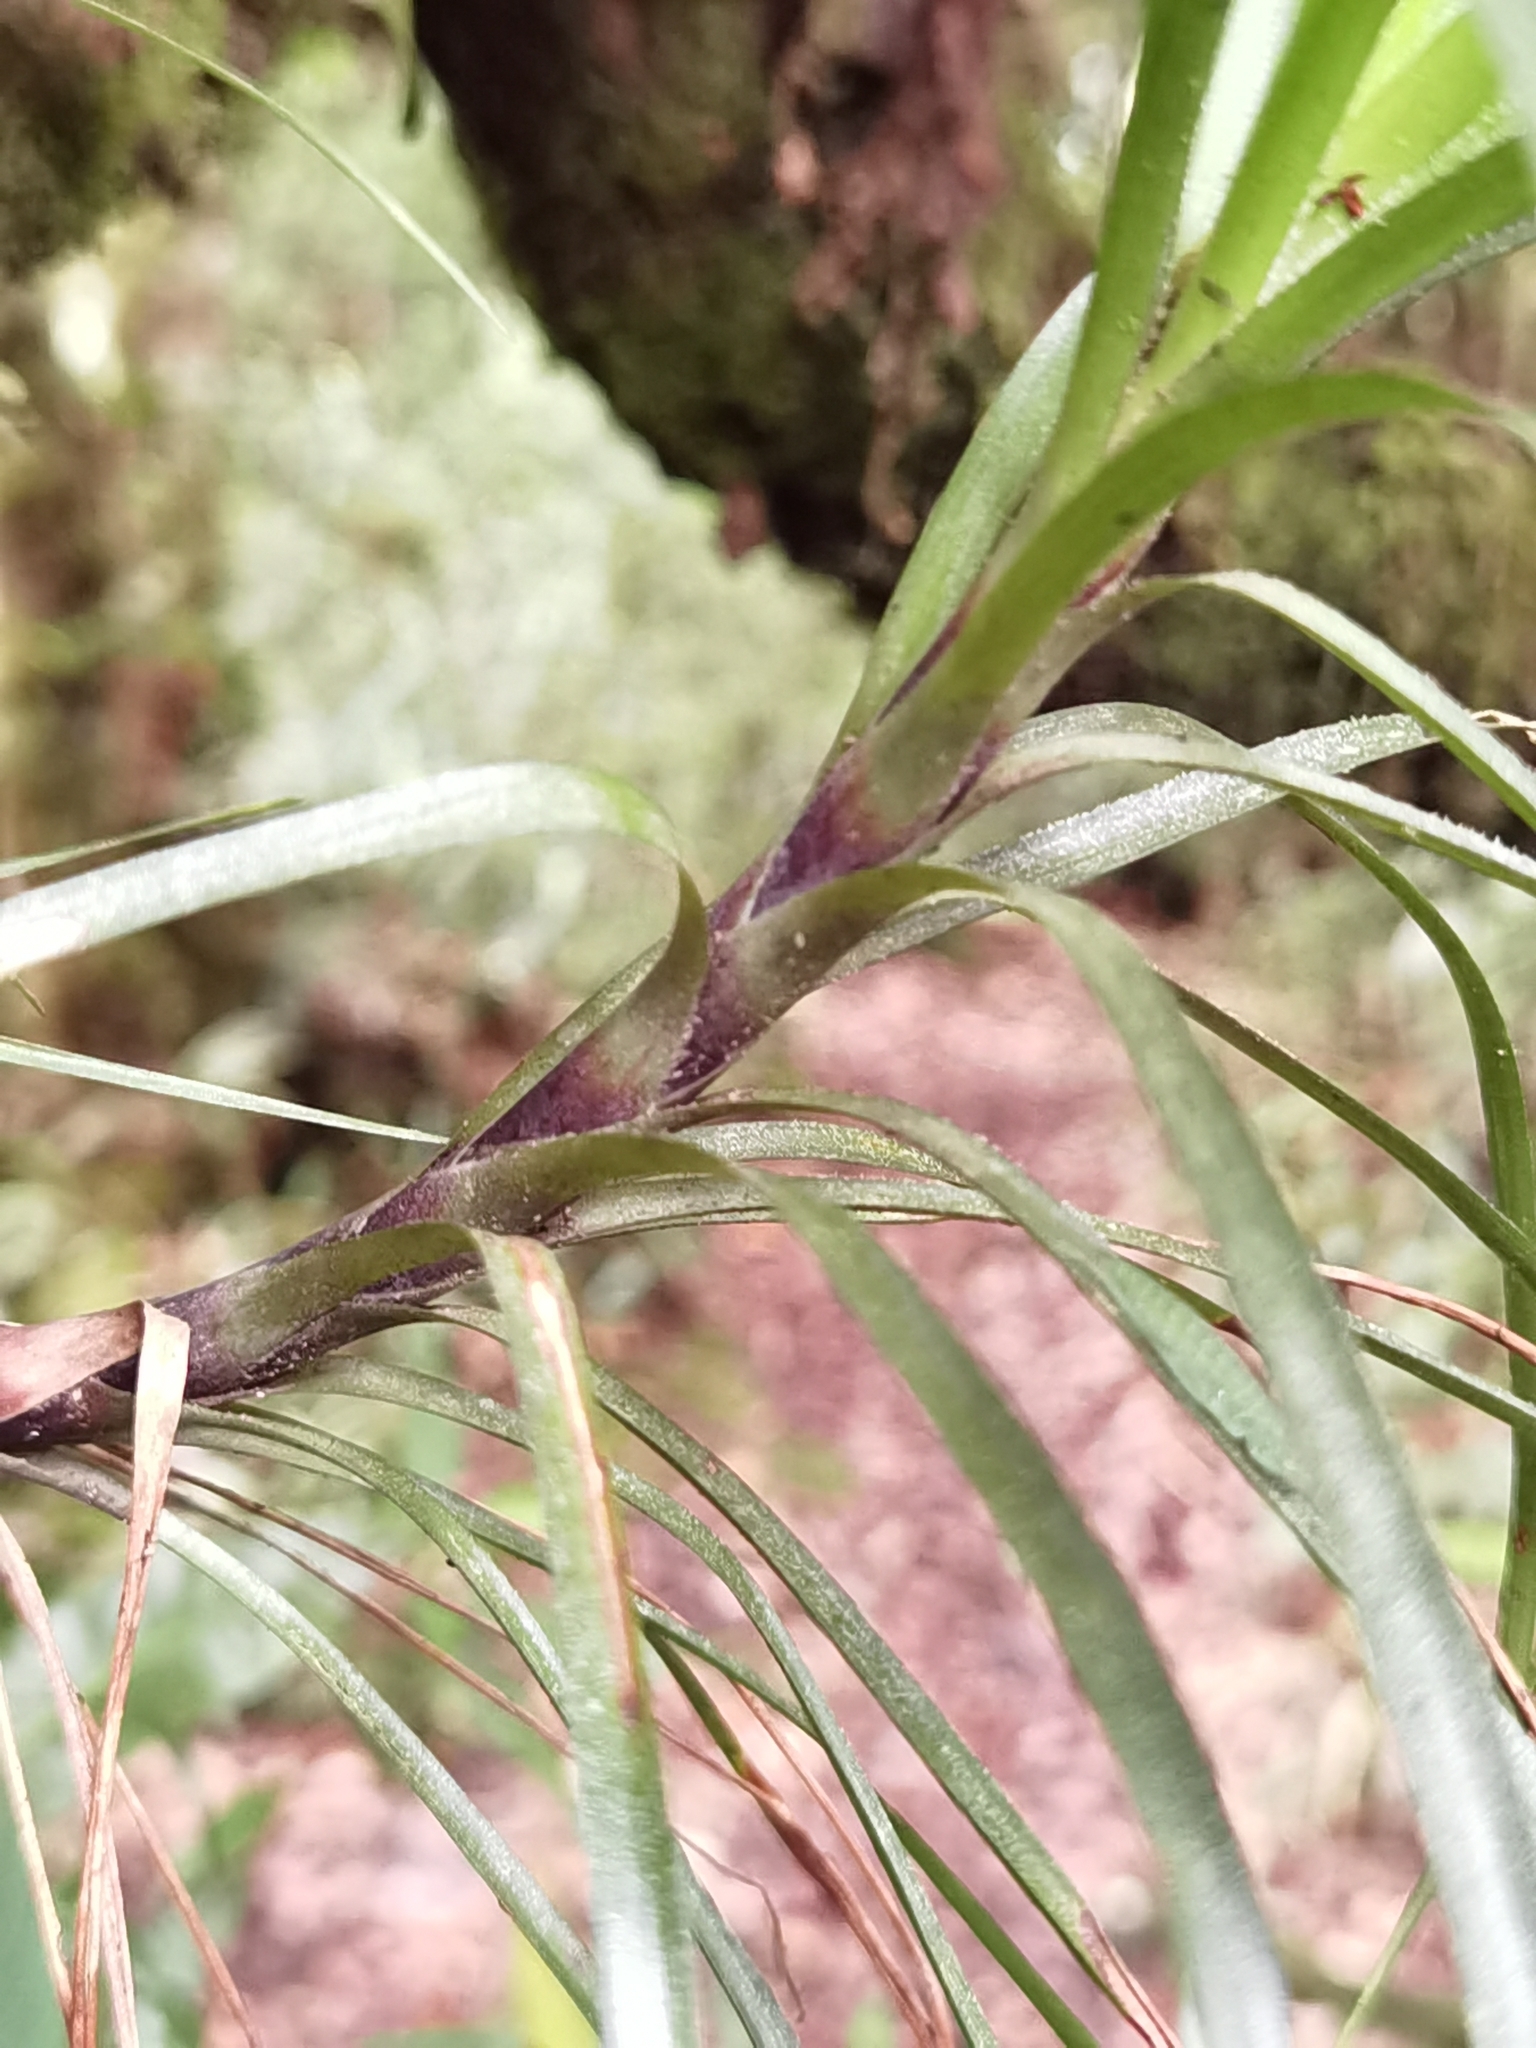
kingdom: Plantae
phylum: Tracheophyta
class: Liliopsida
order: Poales
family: Bromeliaceae
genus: Werauhia
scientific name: Werauhia insignis
